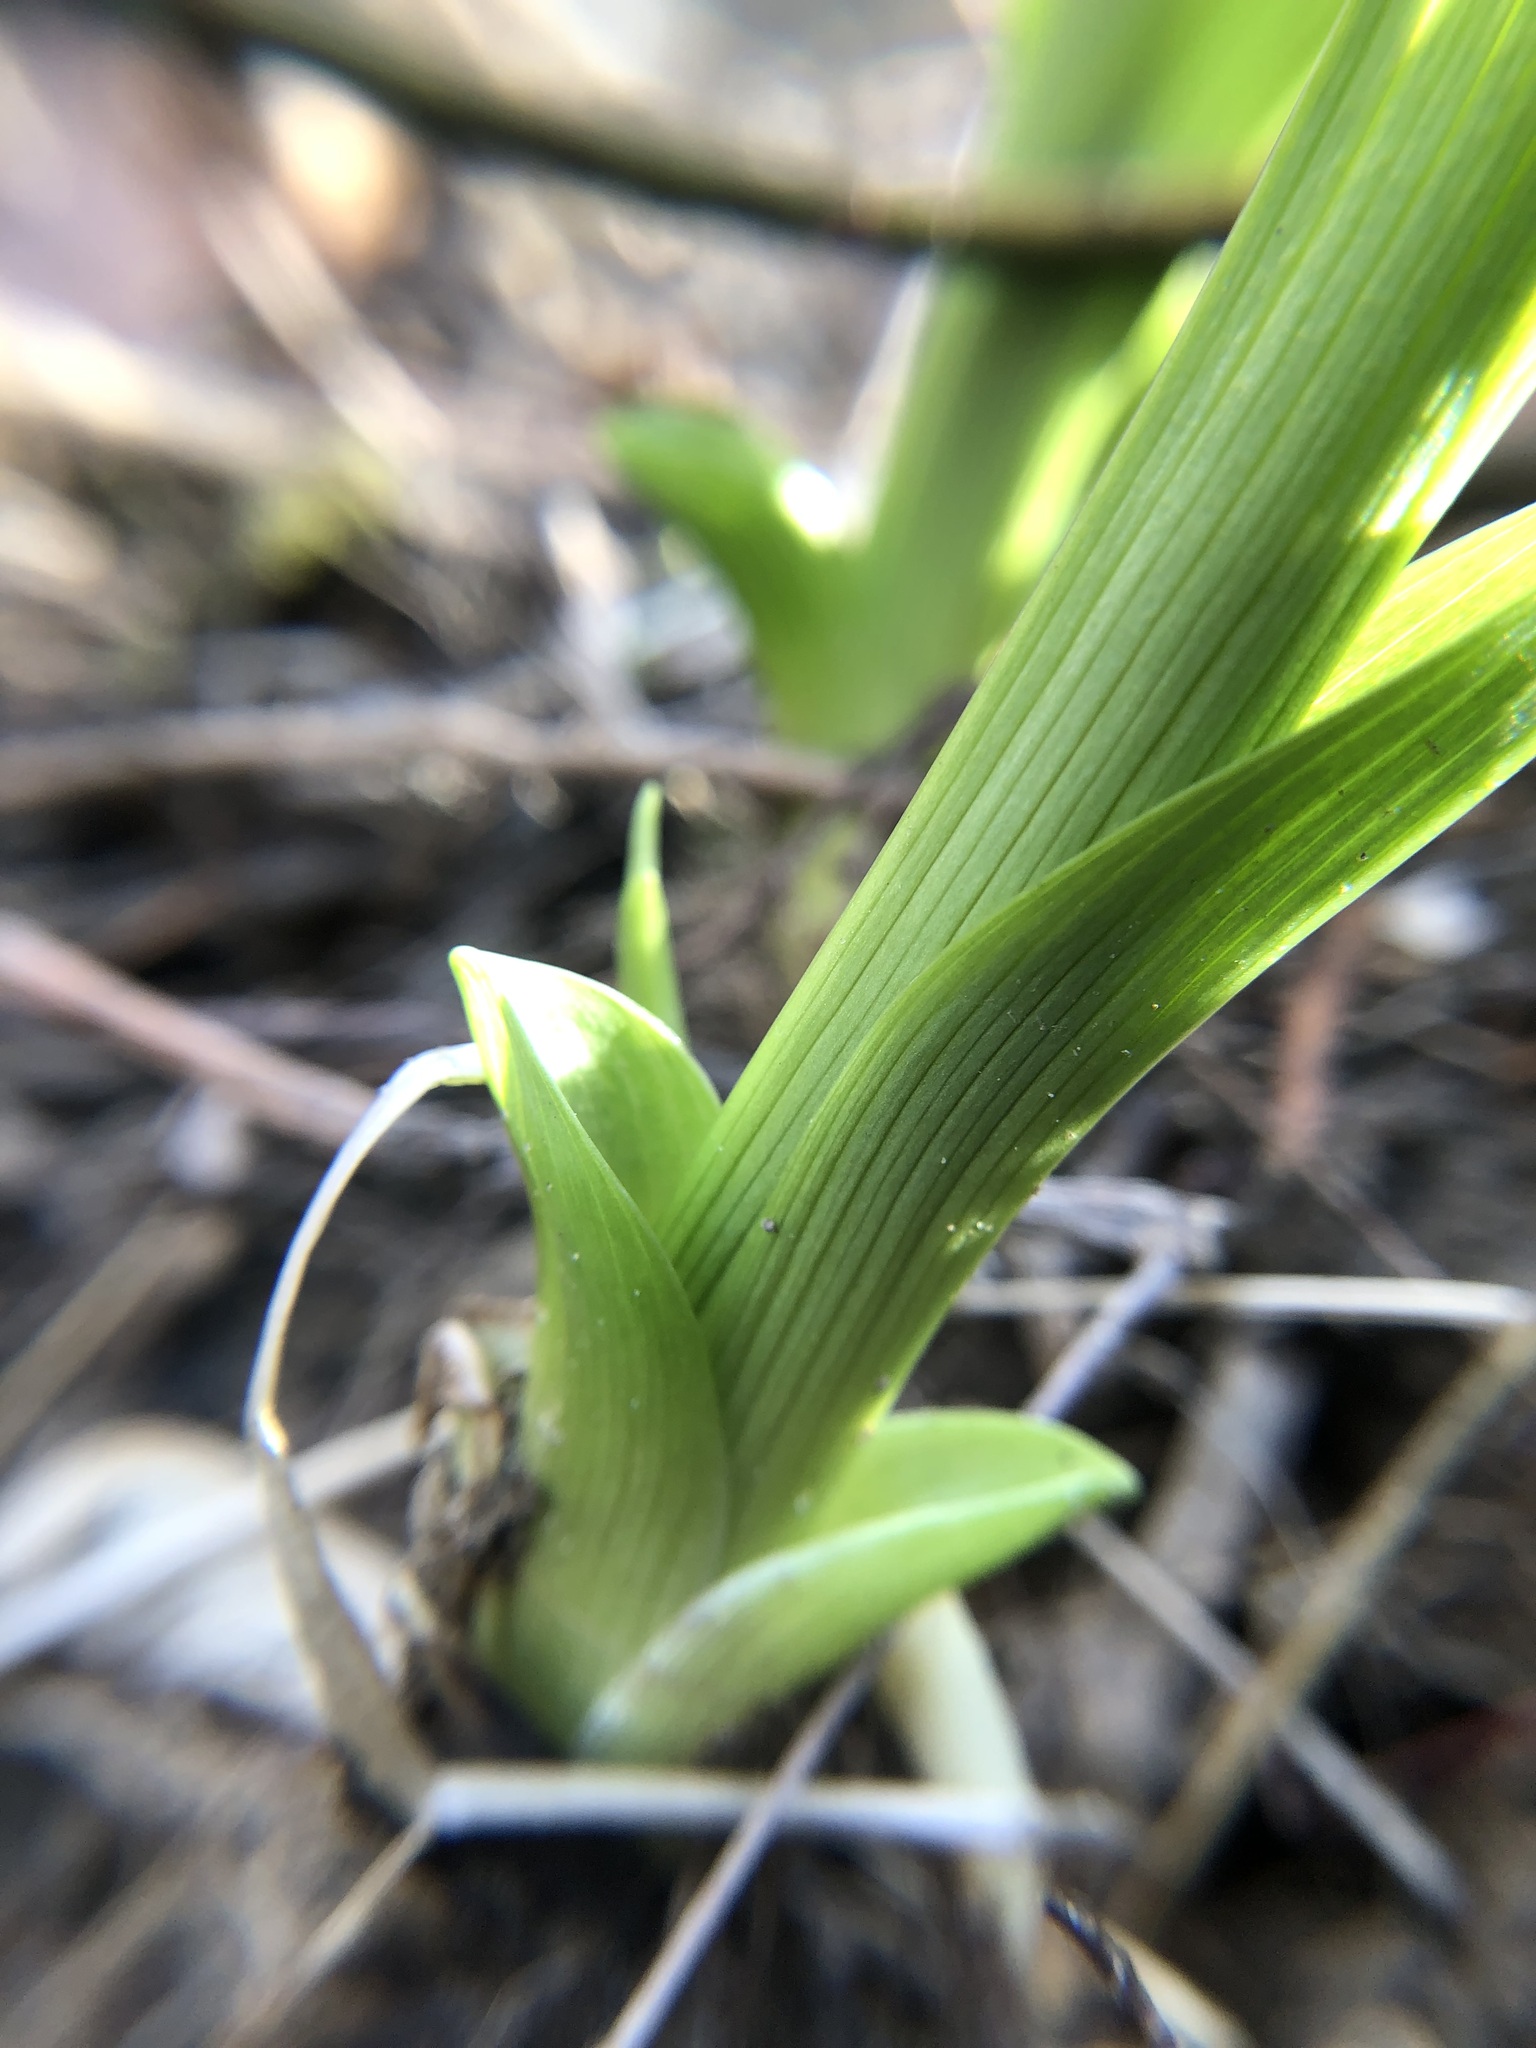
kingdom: Plantae
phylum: Tracheophyta
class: Liliopsida
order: Asparagales
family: Asphodelaceae
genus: Hemerocallis
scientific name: Hemerocallis fulva
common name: Orange day-lily
